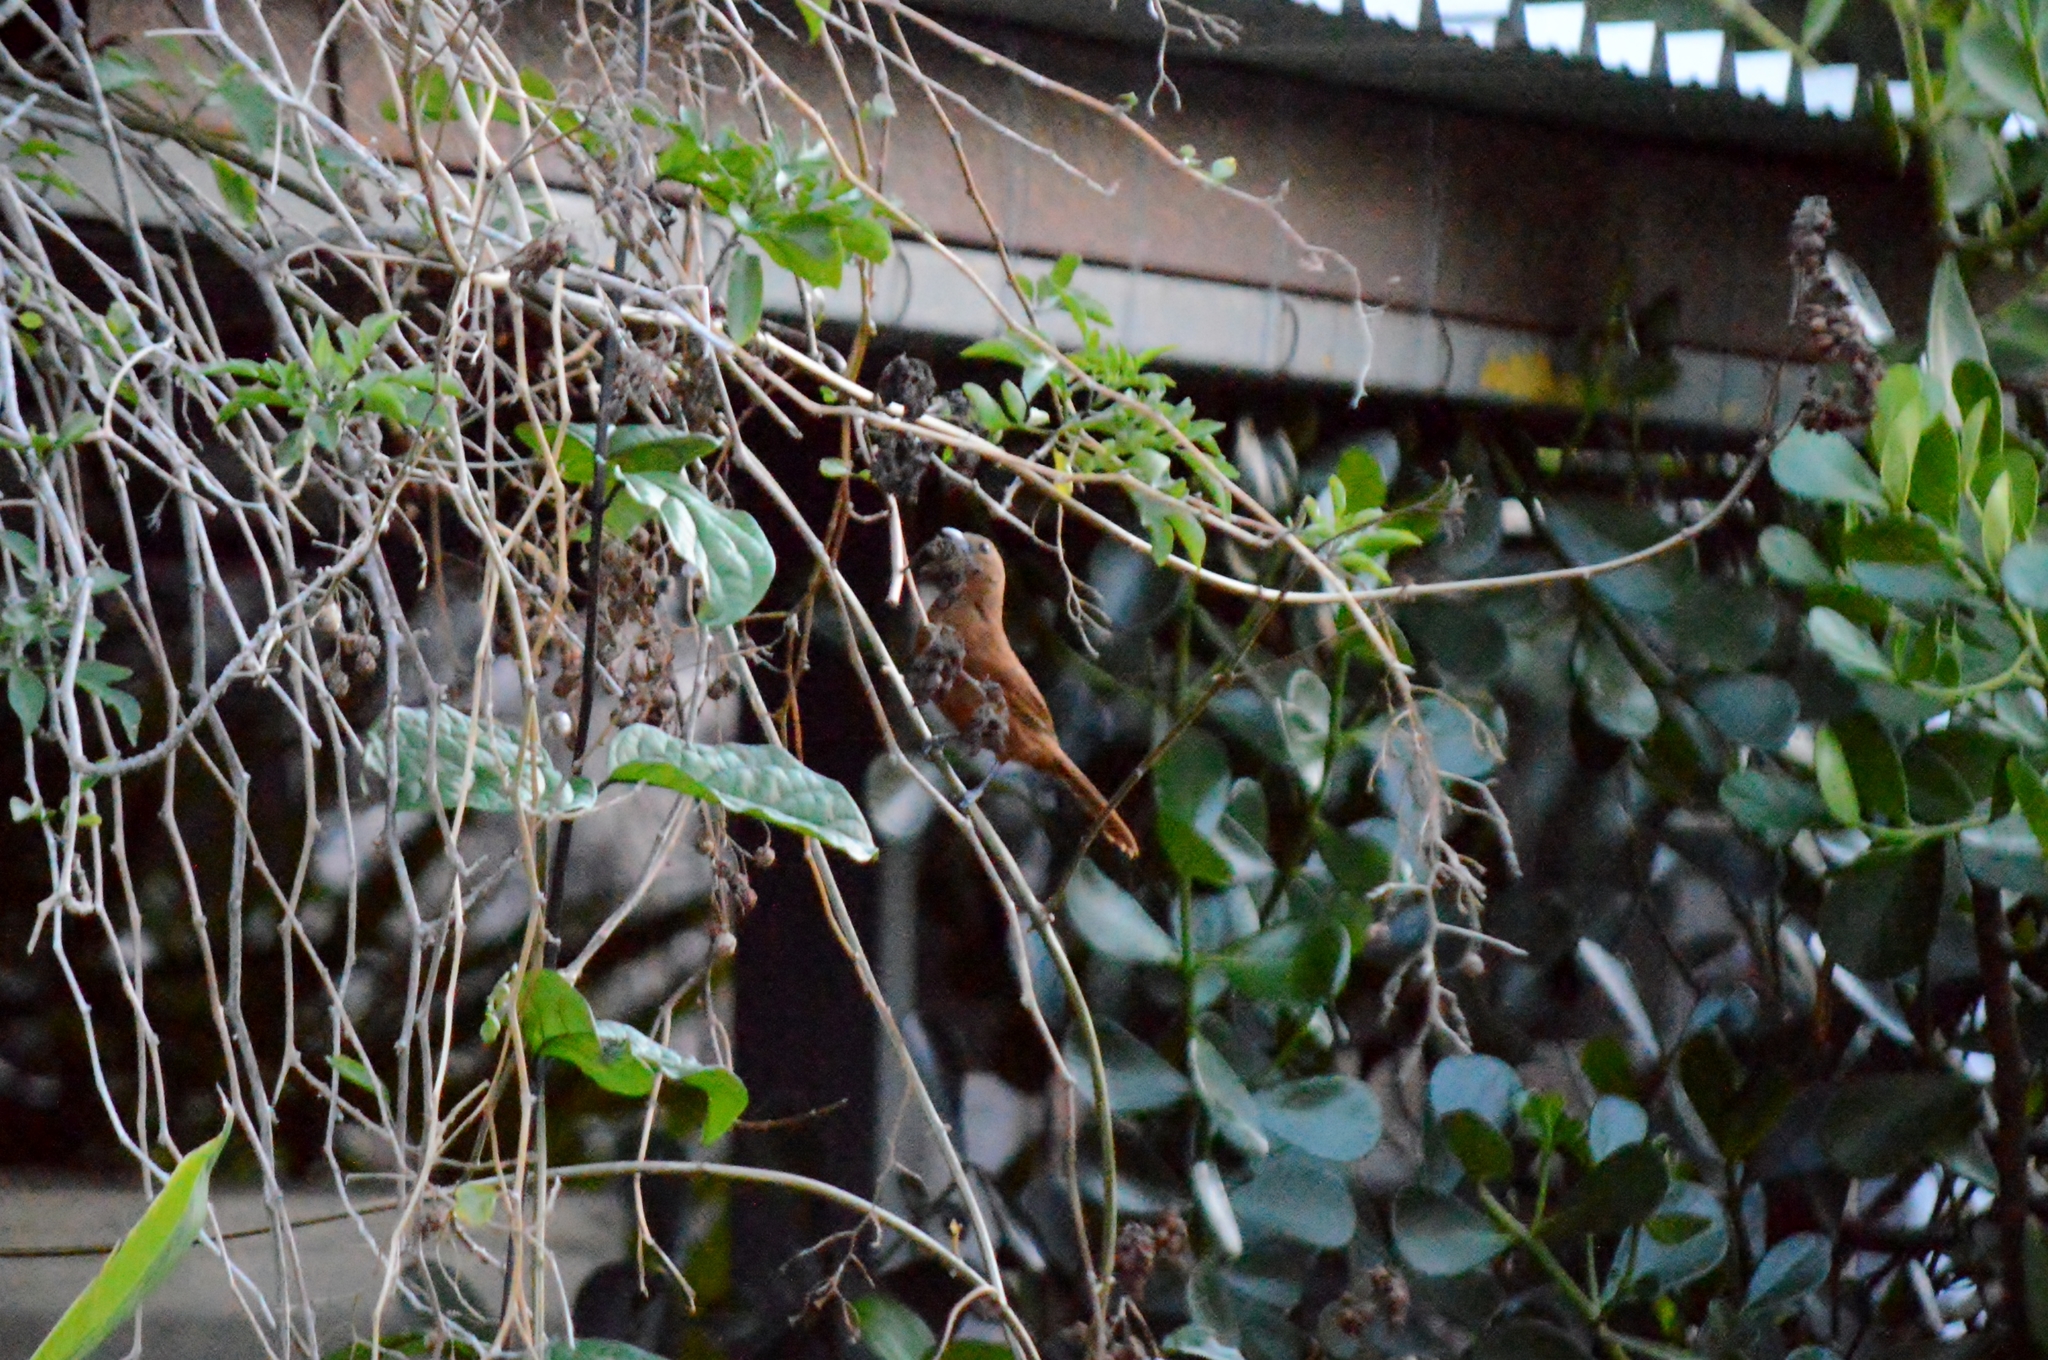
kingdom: Animalia
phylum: Chordata
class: Aves
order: Passeriformes
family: Thraupidae
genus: Tachyphonus
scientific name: Tachyphonus rufus
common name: White-lined tanager
